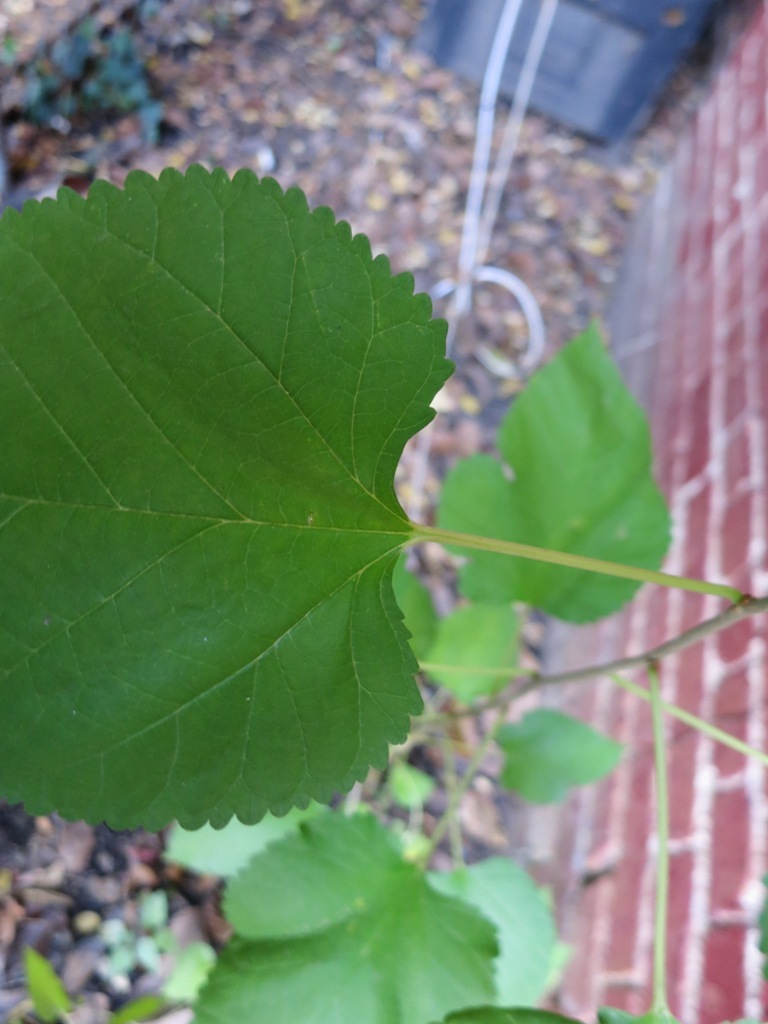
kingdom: Plantae
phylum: Tracheophyta
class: Magnoliopsida
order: Rosales
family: Moraceae
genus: Morus
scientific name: Morus alba
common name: White mulberry
